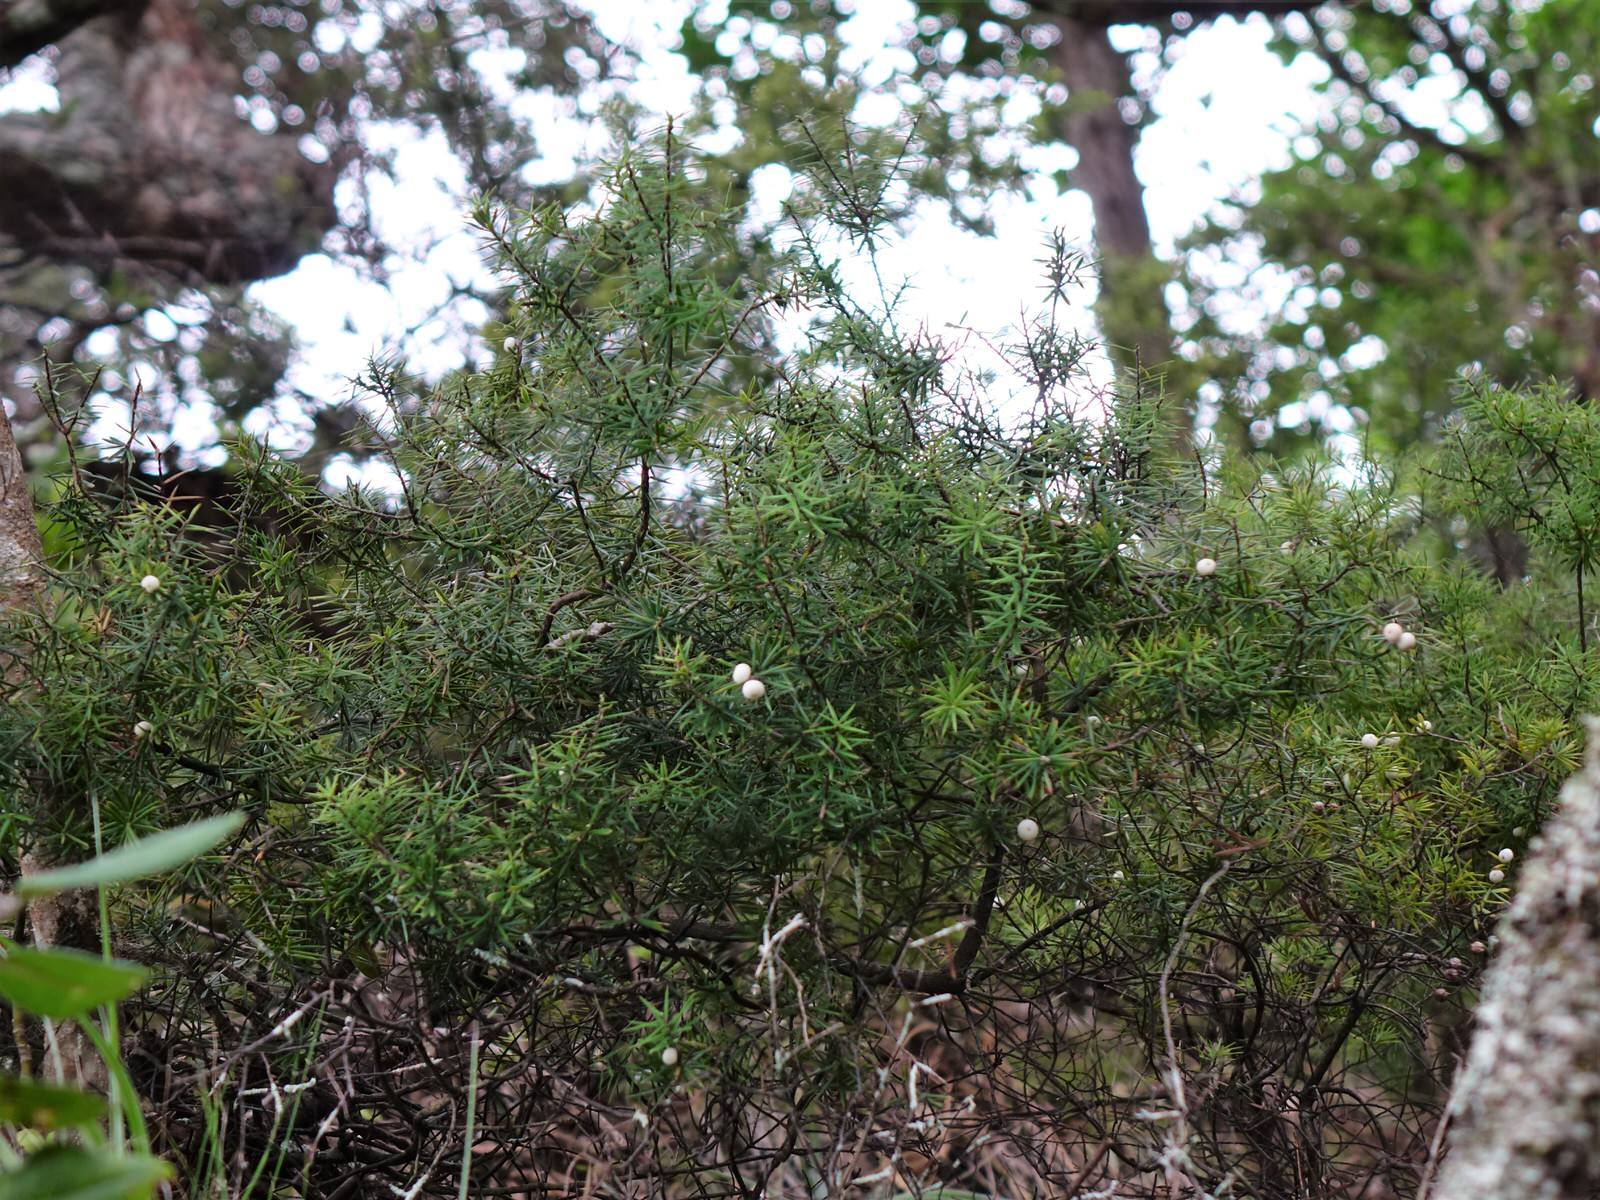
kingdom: Plantae
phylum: Tracheophyta
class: Magnoliopsida
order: Ericales
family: Ericaceae
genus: Leptecophylla
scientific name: Leptecophylla juniperina
